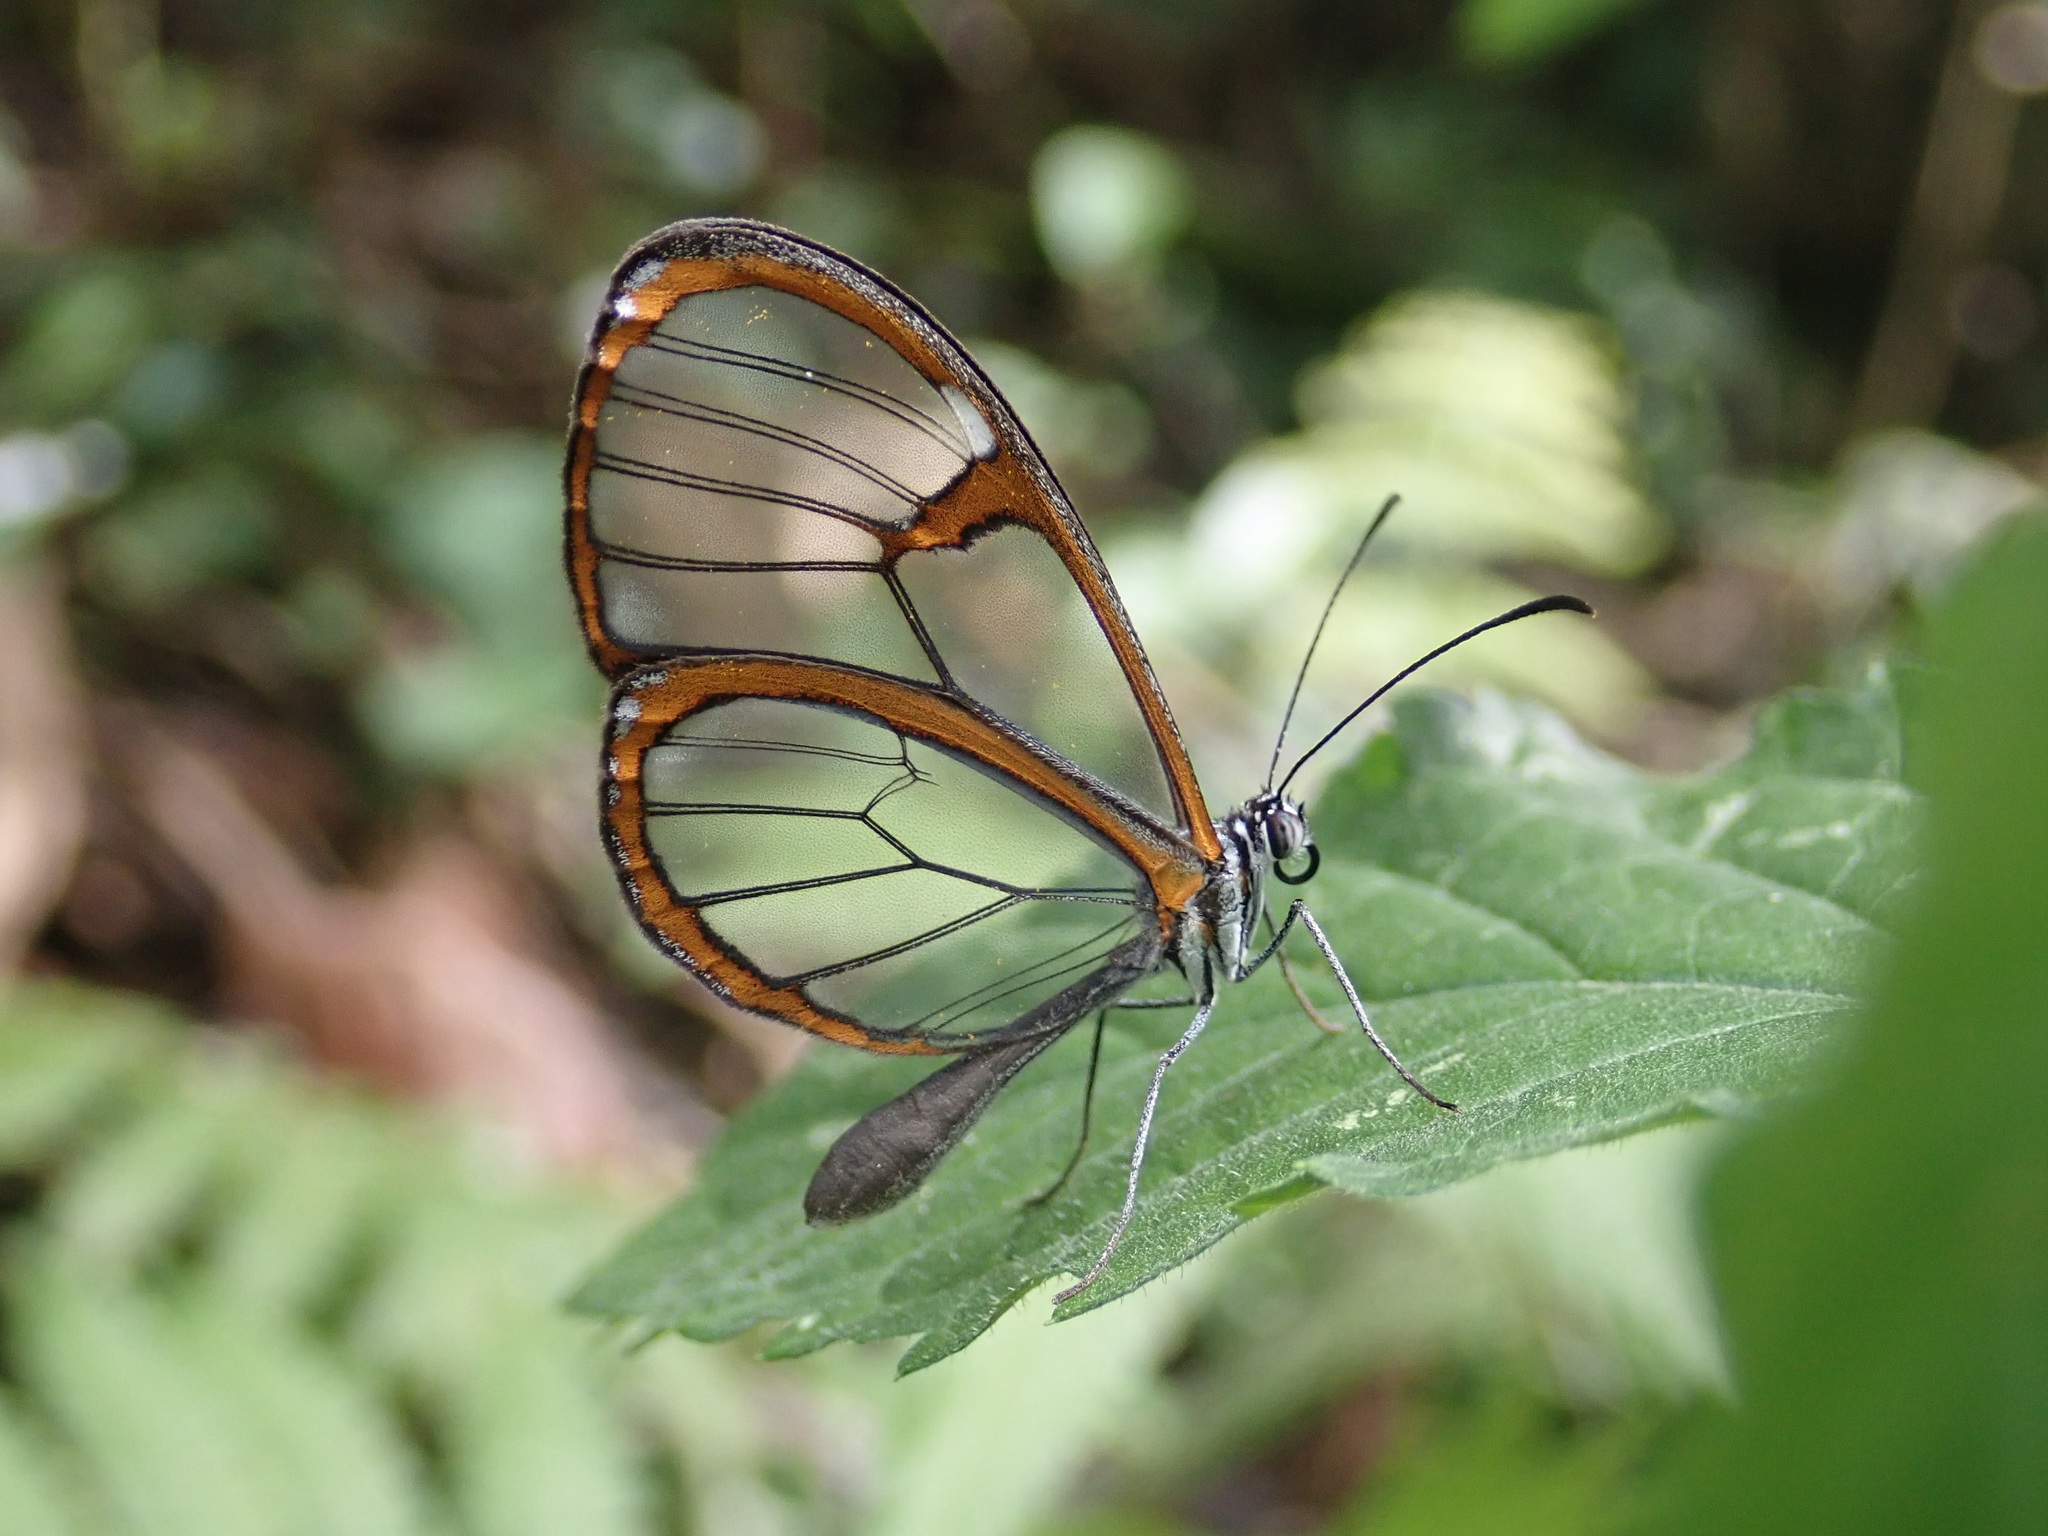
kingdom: Animalia
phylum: Arthropoda
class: Insecta
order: Lepidoptera
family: Nymphalidae
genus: Pteronymia
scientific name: Pteronymia carlia
